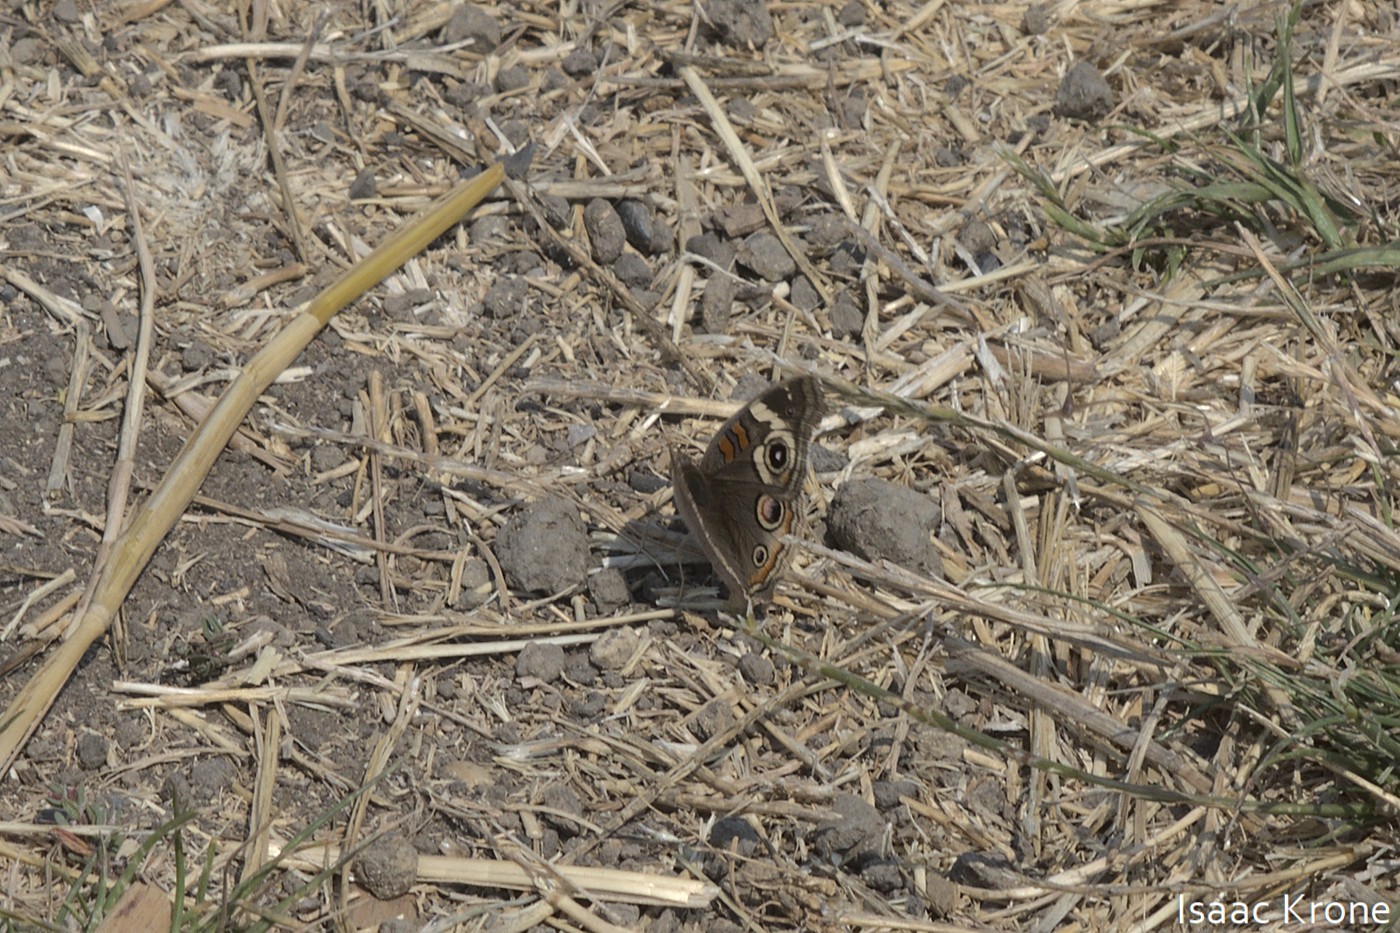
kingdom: Animalia
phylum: Arthropoda
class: Insecta
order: Lepidoptera
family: Nymphalidae
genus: Junonia
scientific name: Junonia grisea
